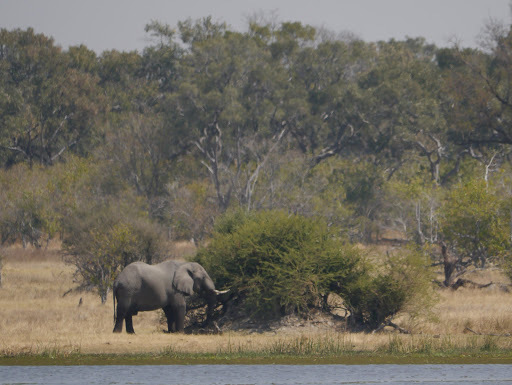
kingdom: Animalia
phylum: Chordata
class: Mammalia
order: Proboscidea
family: Elephantidae
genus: Loxodonta
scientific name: Loxodonta africana
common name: African elephant
